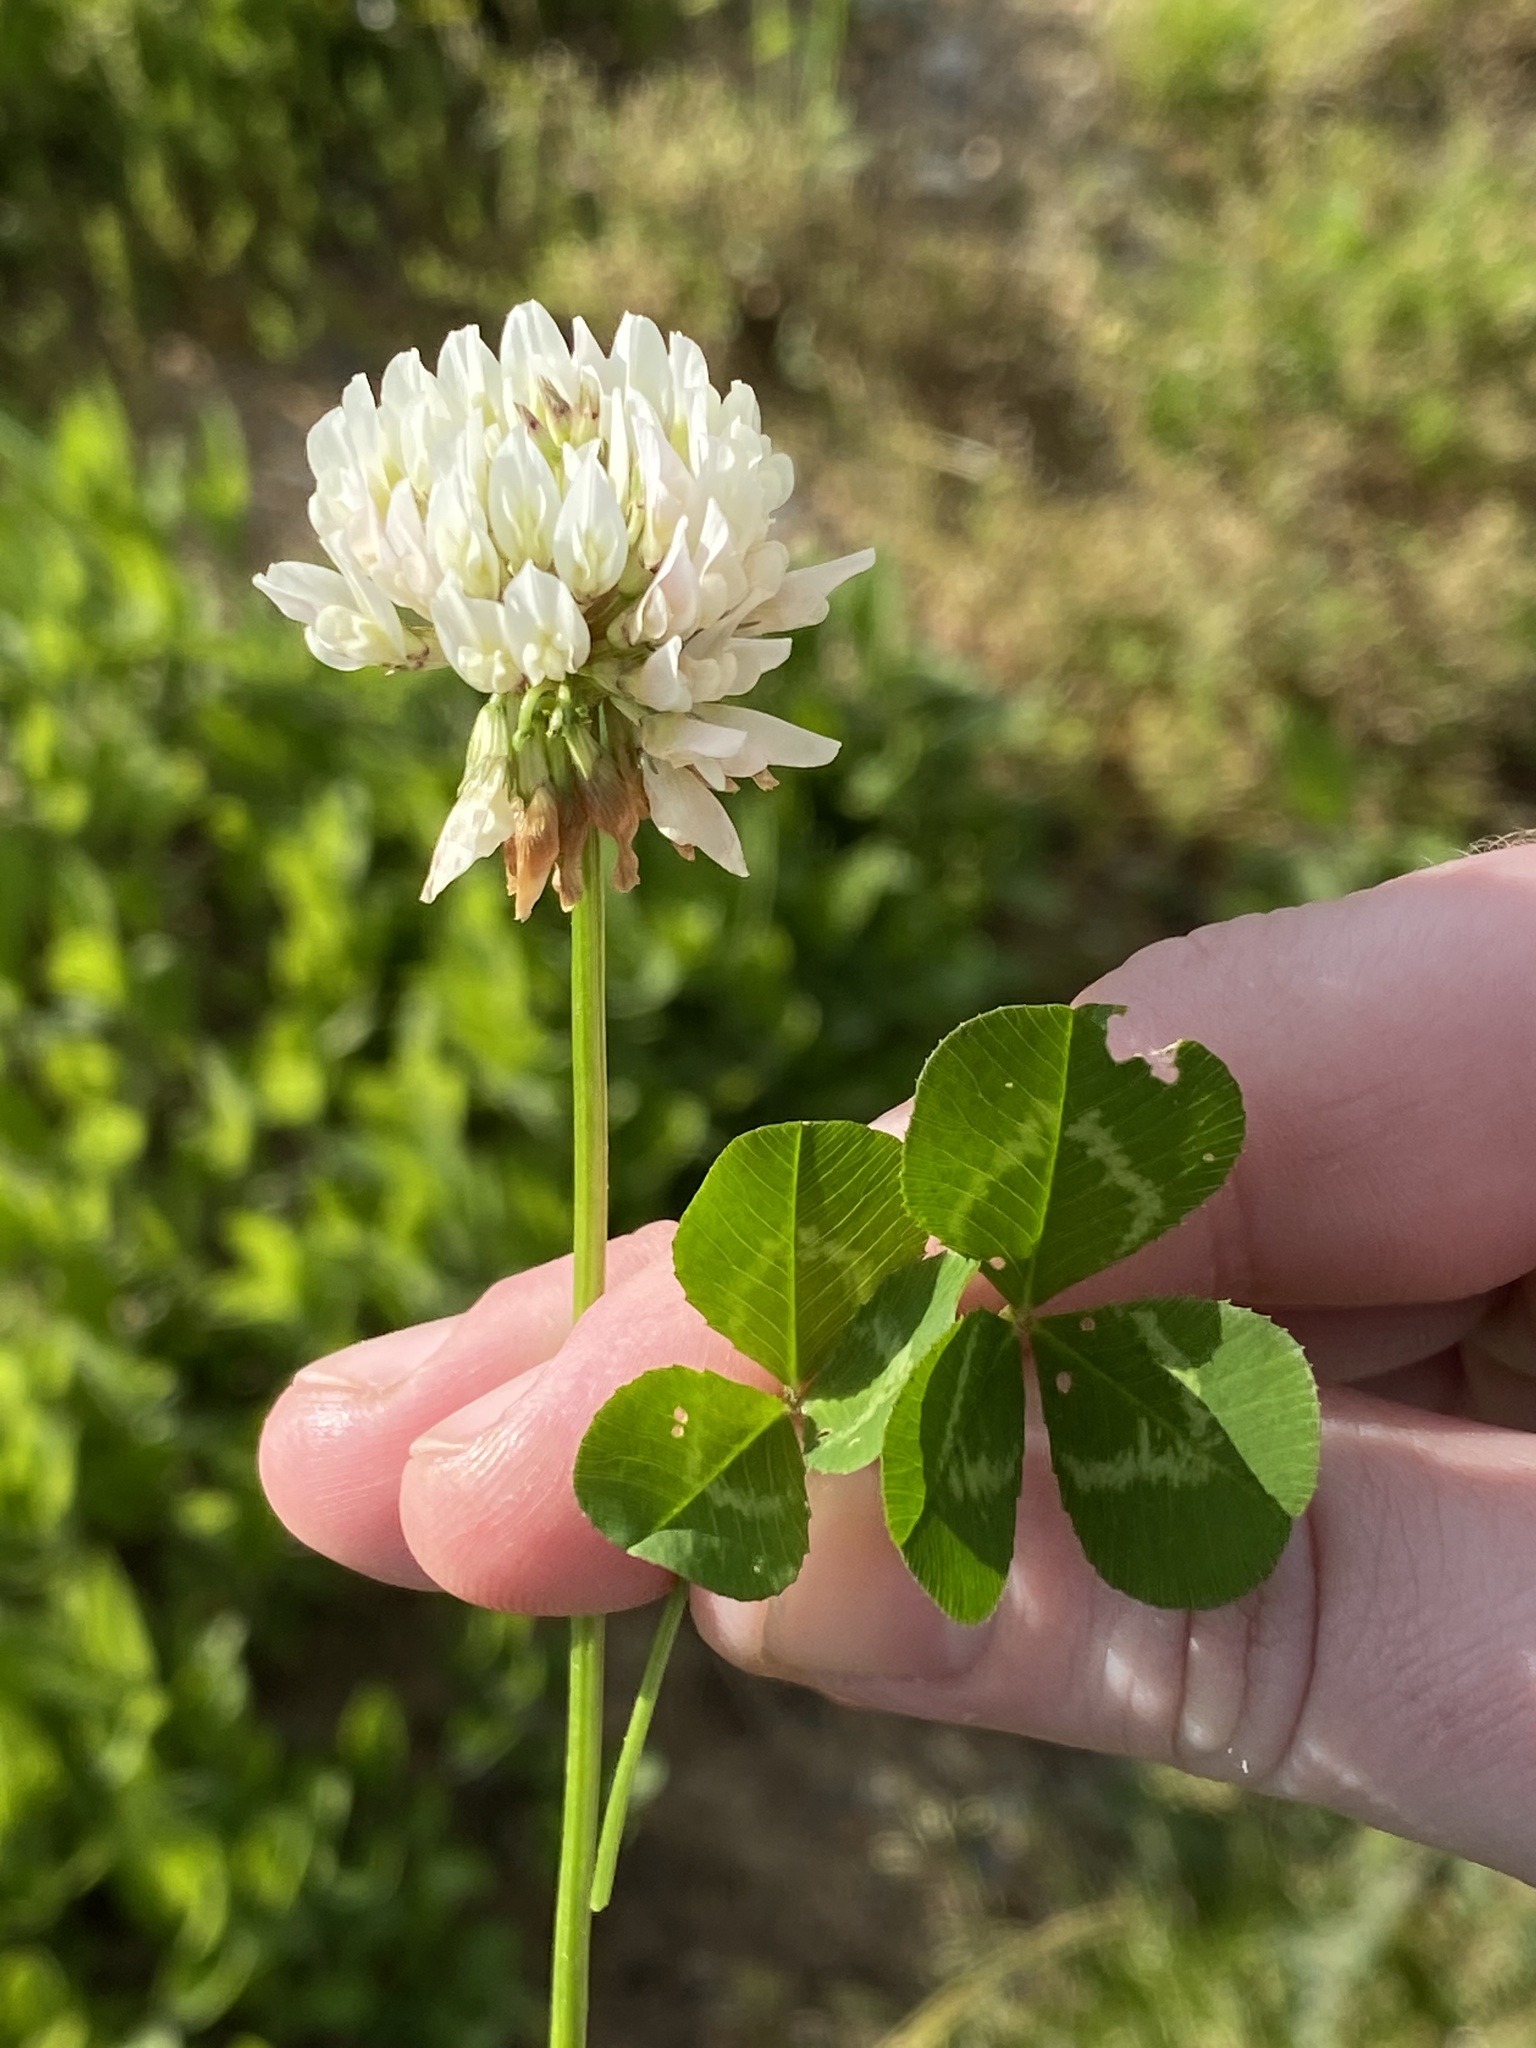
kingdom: Plantae
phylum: Tracheophyta
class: Magnoliopsida
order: Fabales
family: Fabaceae
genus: Trifolium
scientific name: Trifolium repens
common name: White clover
